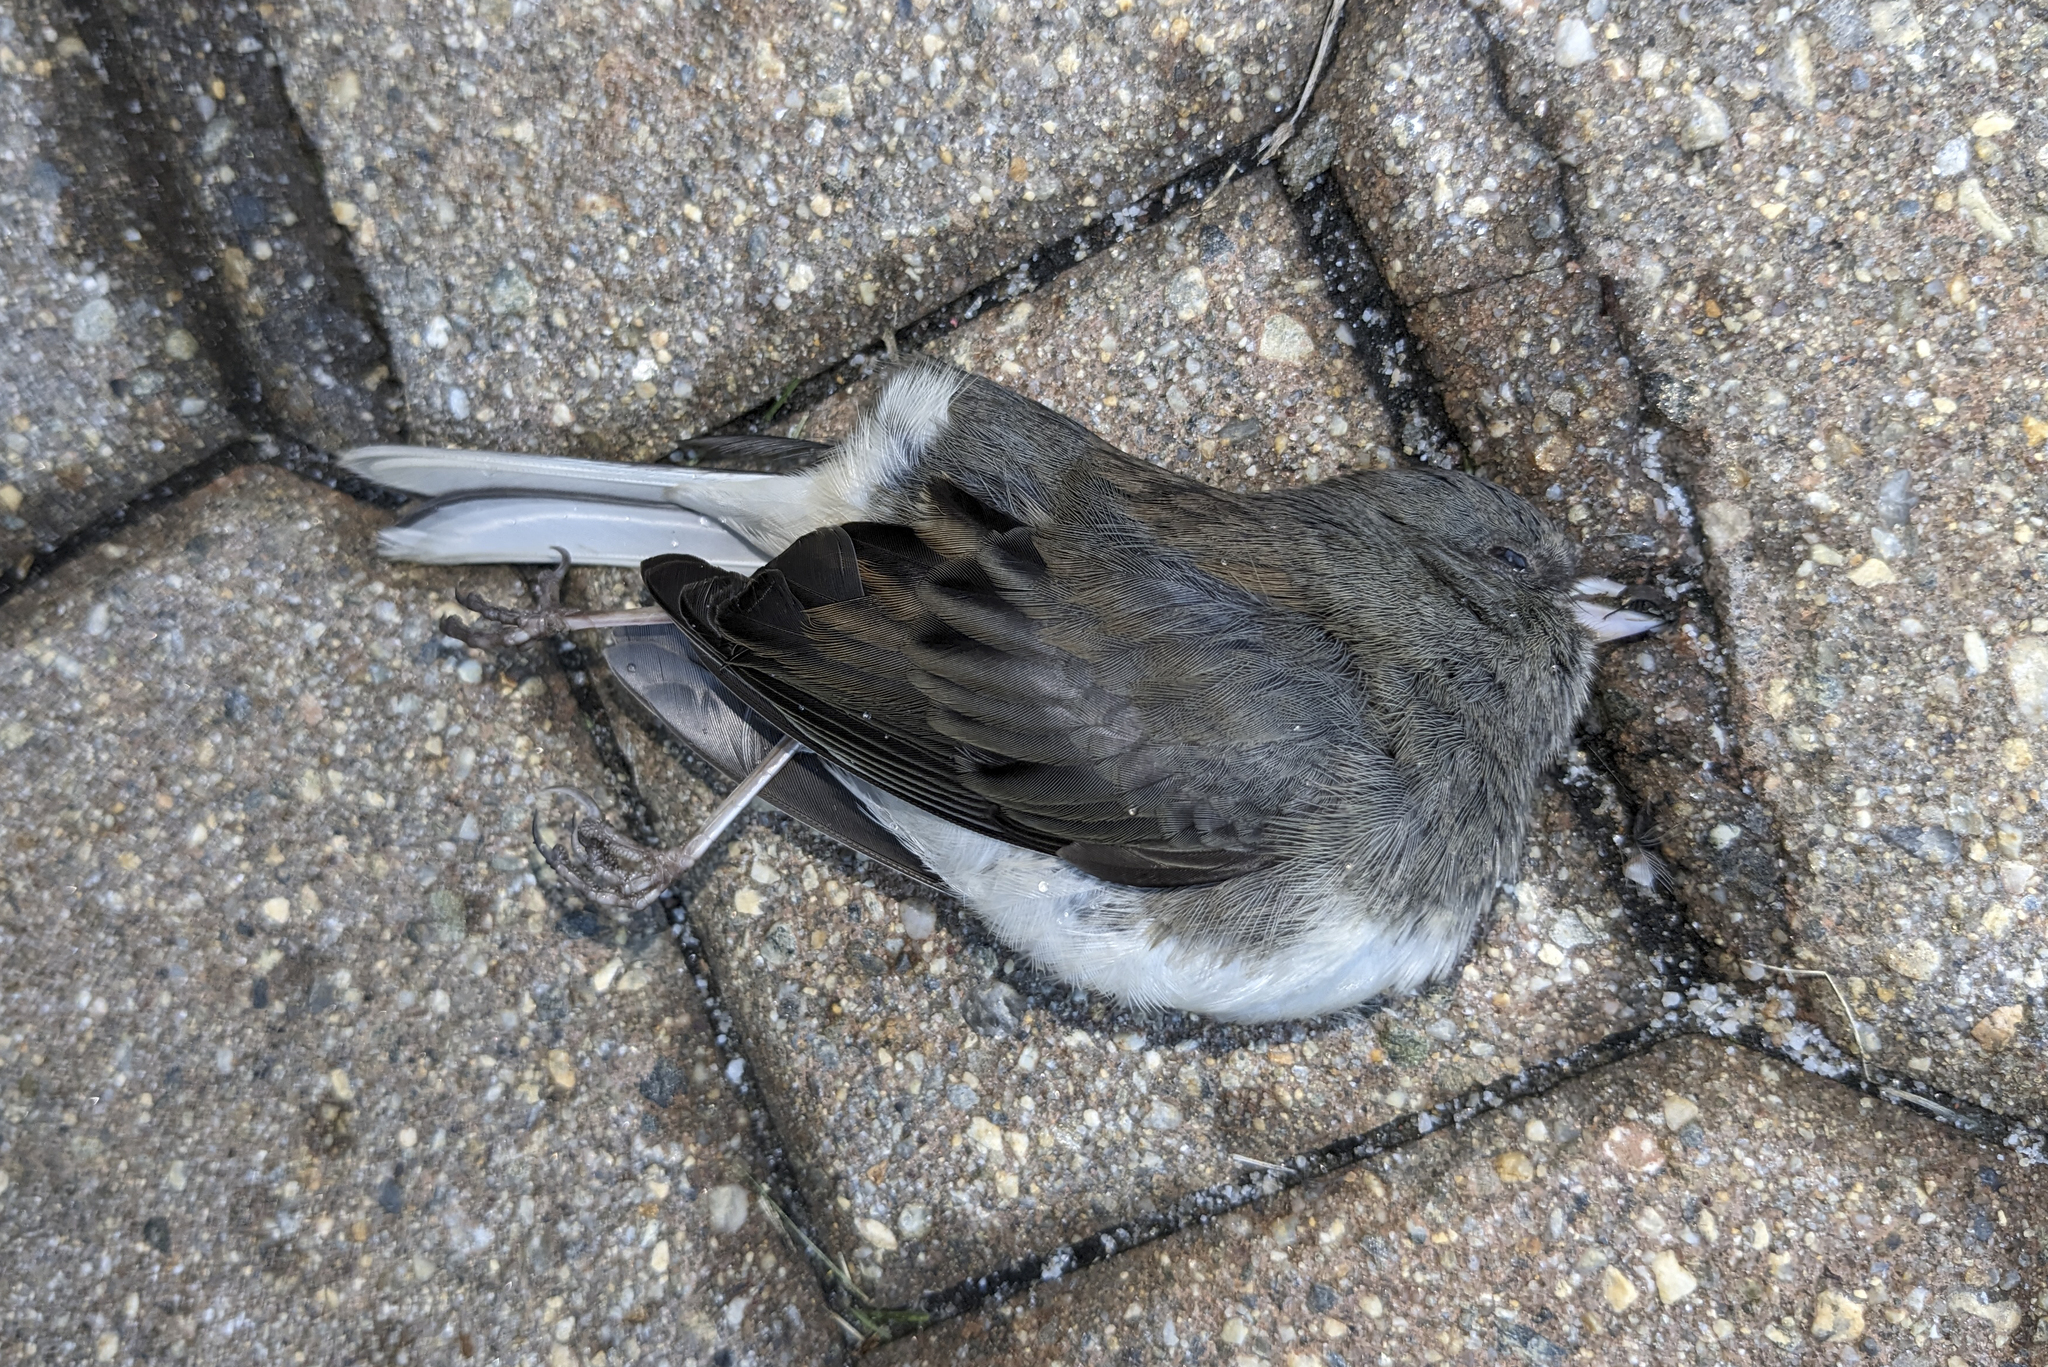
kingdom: Animalia
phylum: Chordata
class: Aves
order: Passeriformes
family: Passerellidae
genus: Junco
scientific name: Junco hyemalis
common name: Dark-eyed junco
